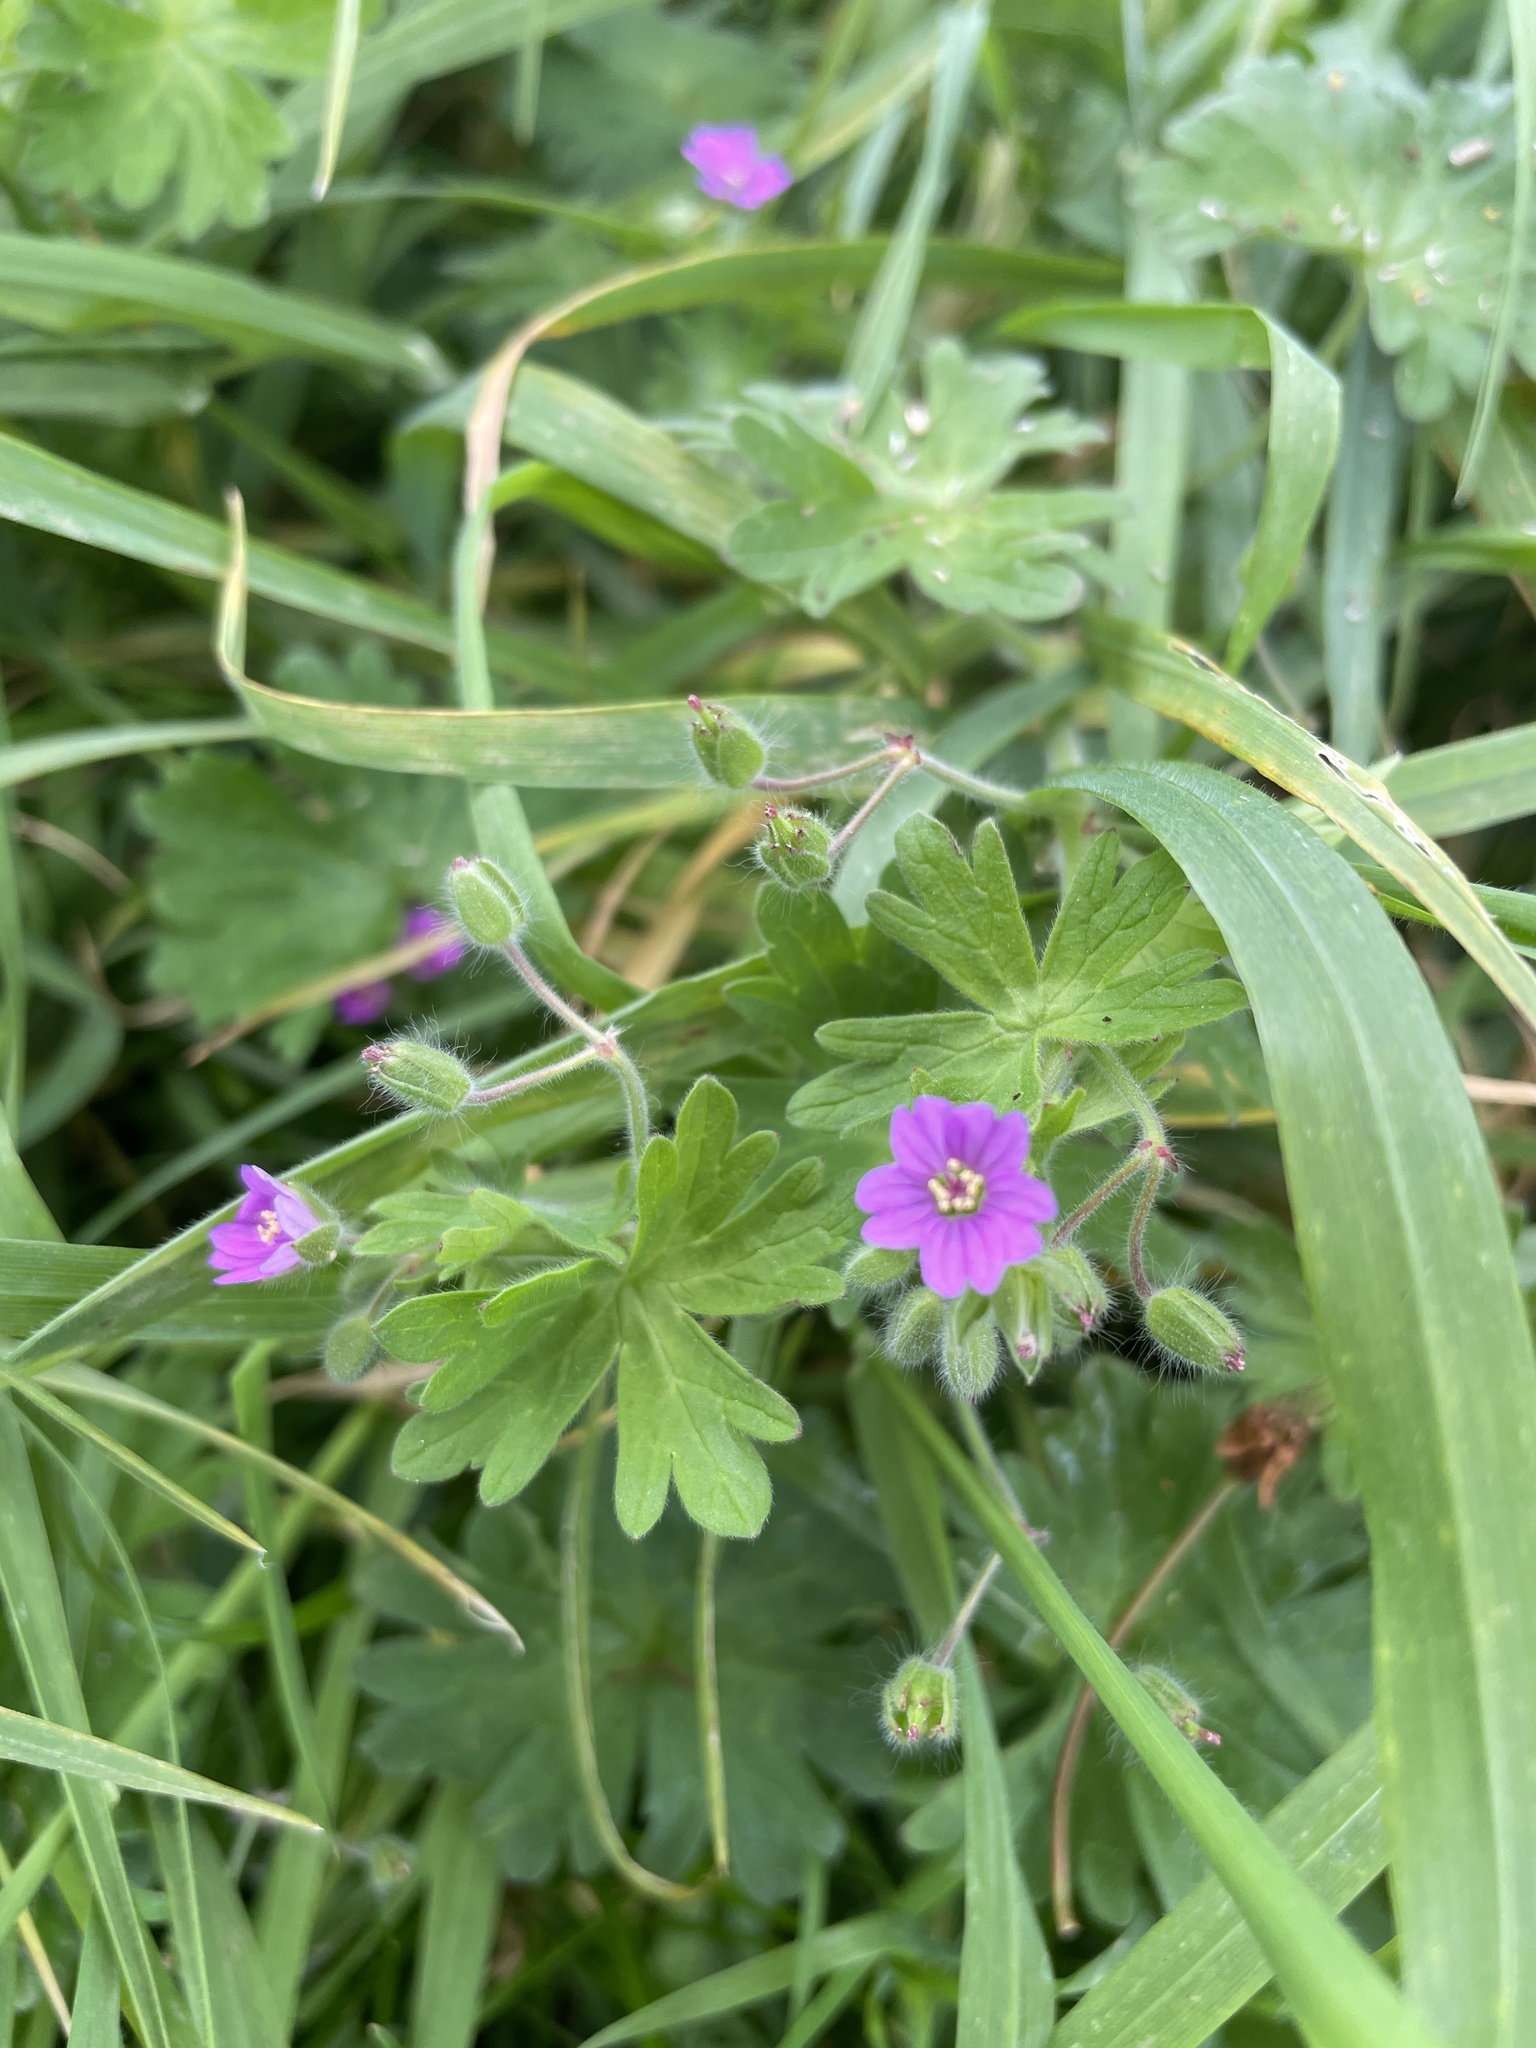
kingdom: Plantae
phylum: Tracheophyta
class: Magnoliopsida
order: Geraniales
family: Geraniaceae
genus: Geranium
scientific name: Geranium molle
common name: Dove's-foot crane's-bill
